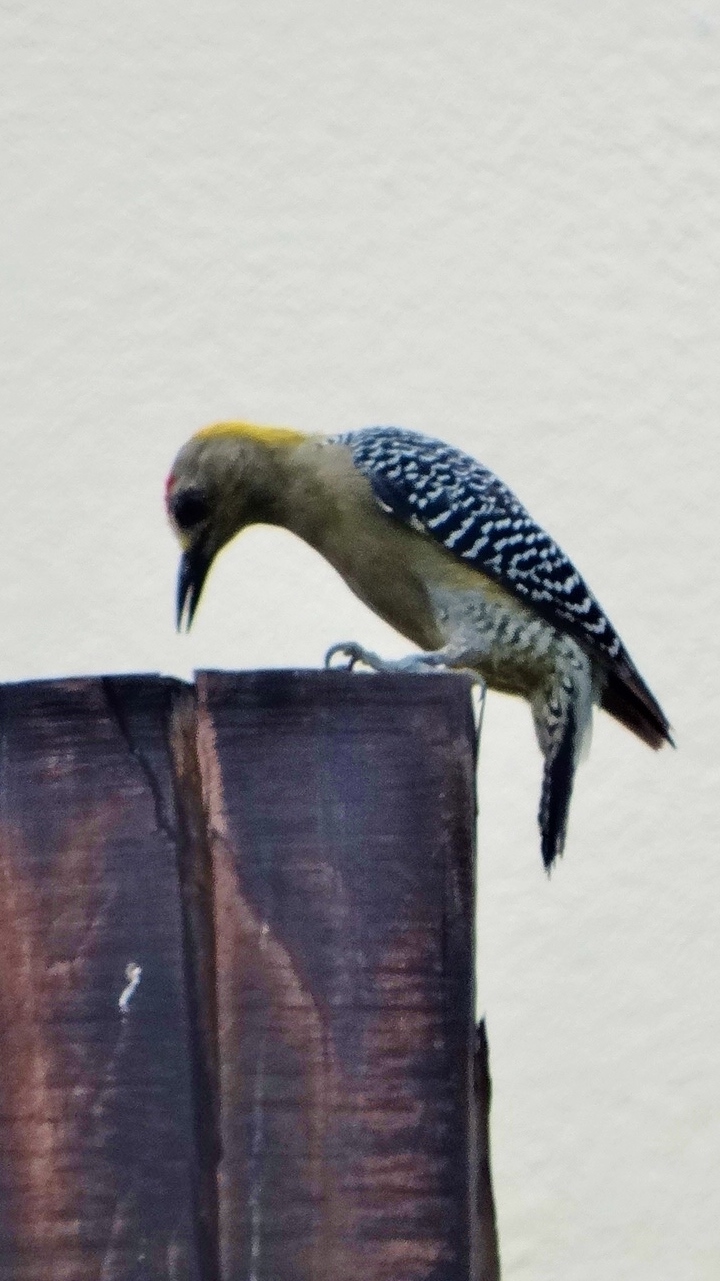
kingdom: Animalia
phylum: Chordata
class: Aves
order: Piciformes
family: Picidae
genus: Melanerpes
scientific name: Melanerpes hoffmannii
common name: Hoffmann's woodpecker
